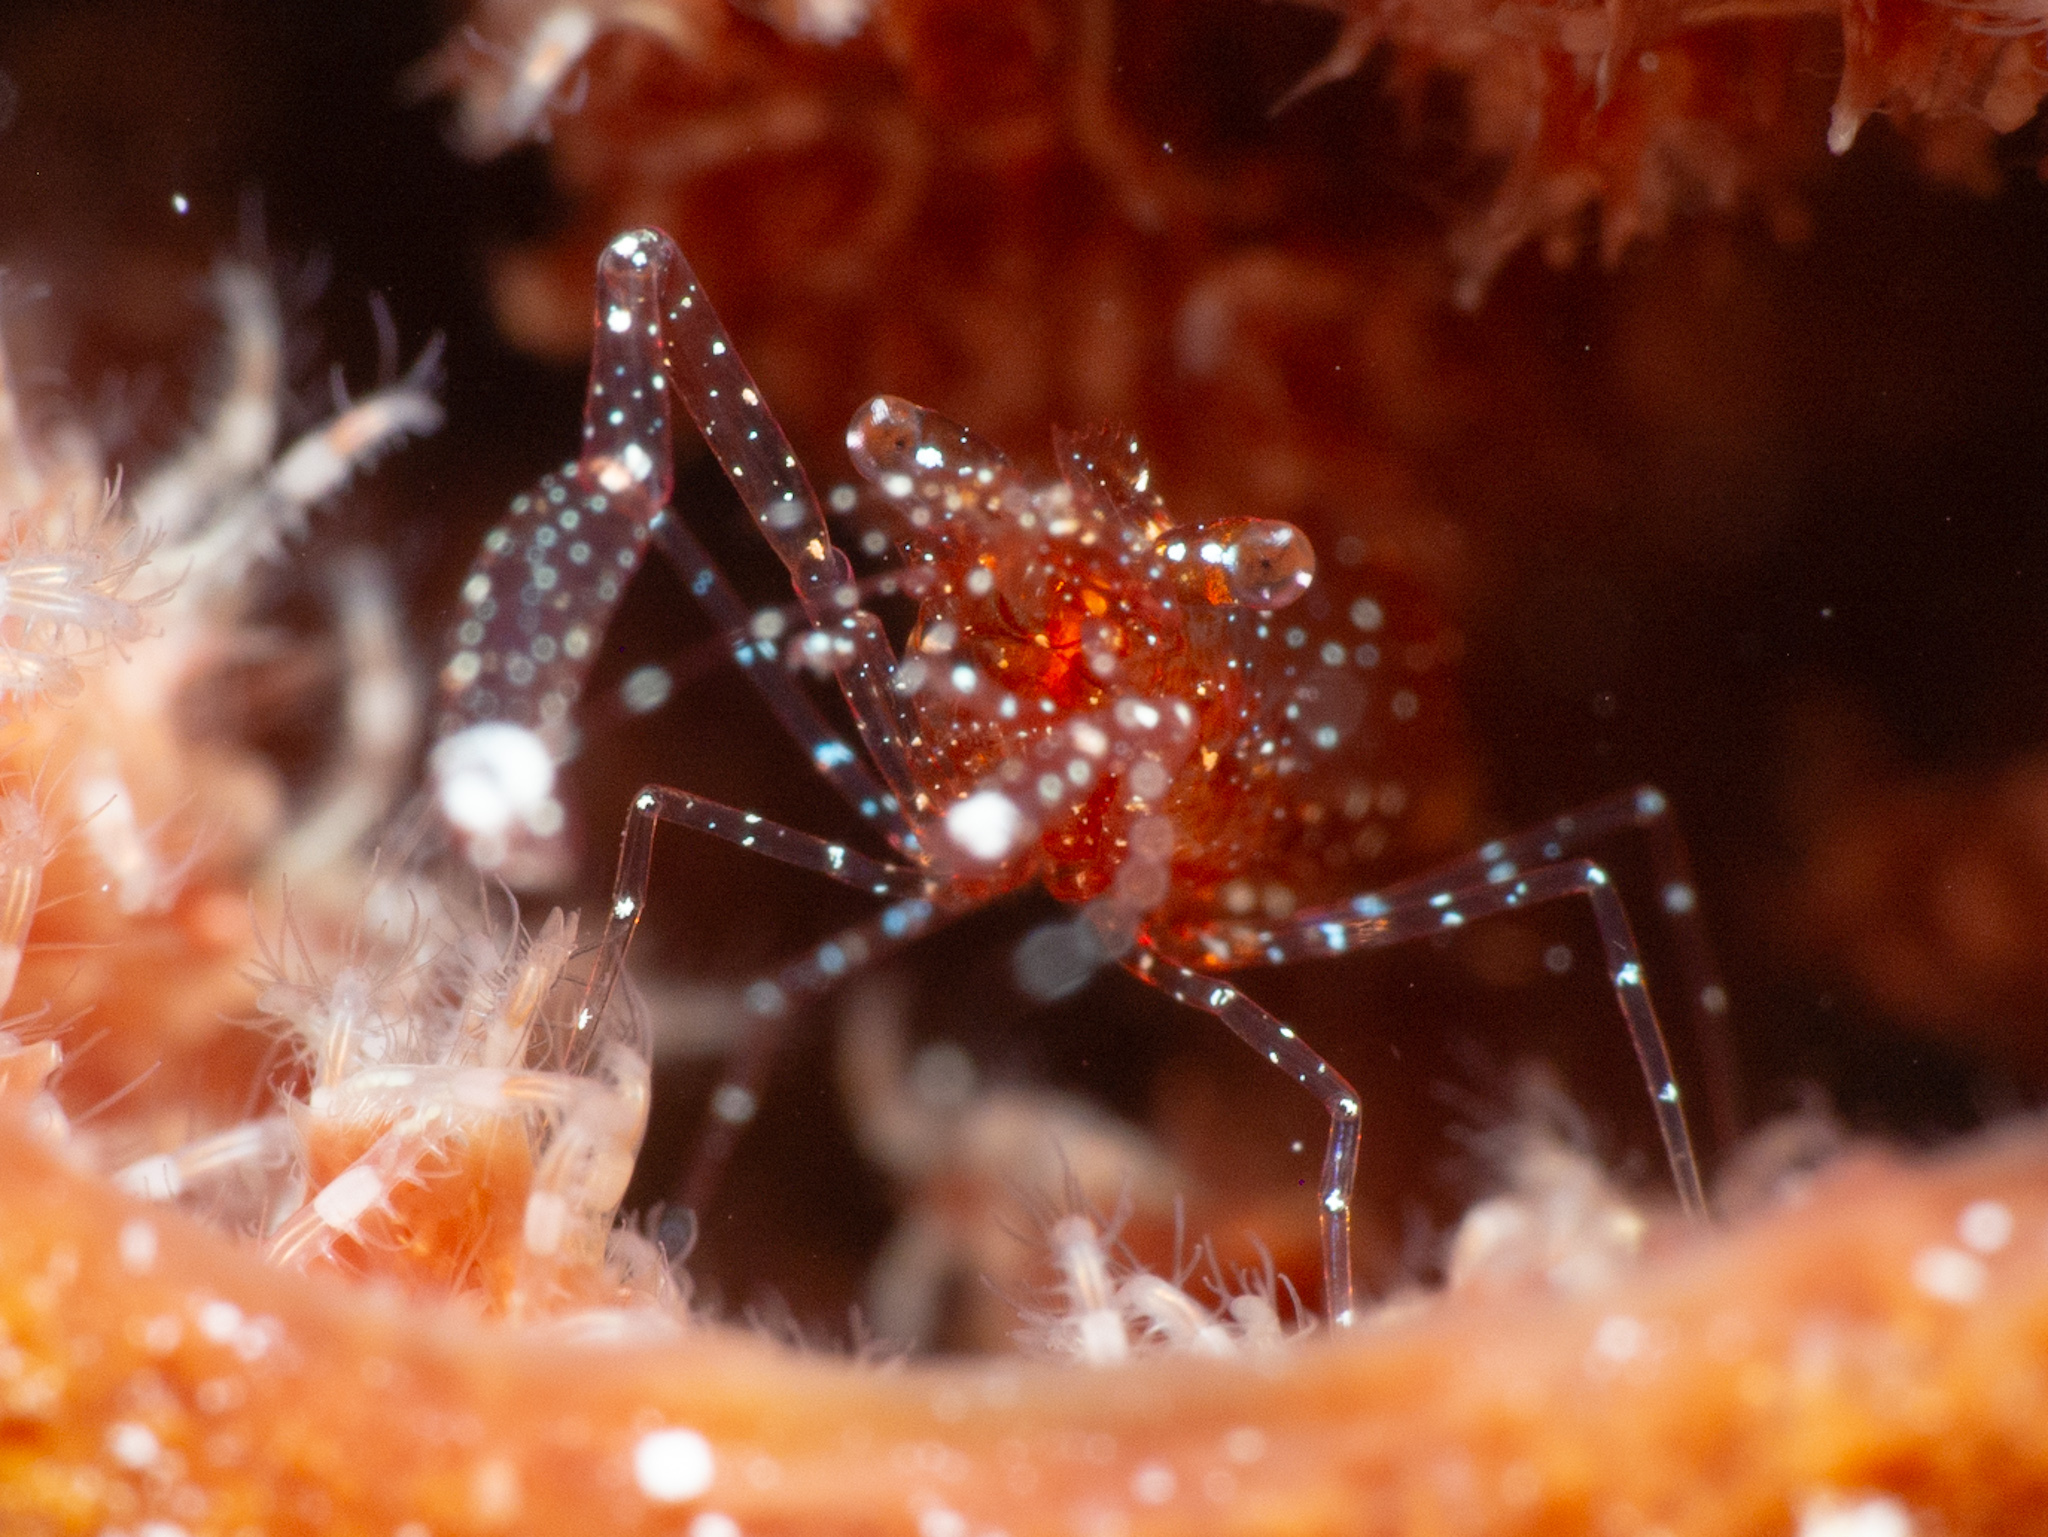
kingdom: Animalia
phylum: Arthropoda
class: Malacostraca
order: Decapoda
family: Palaemonidae
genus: Periclimenes
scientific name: Periclimenes harringtoni
